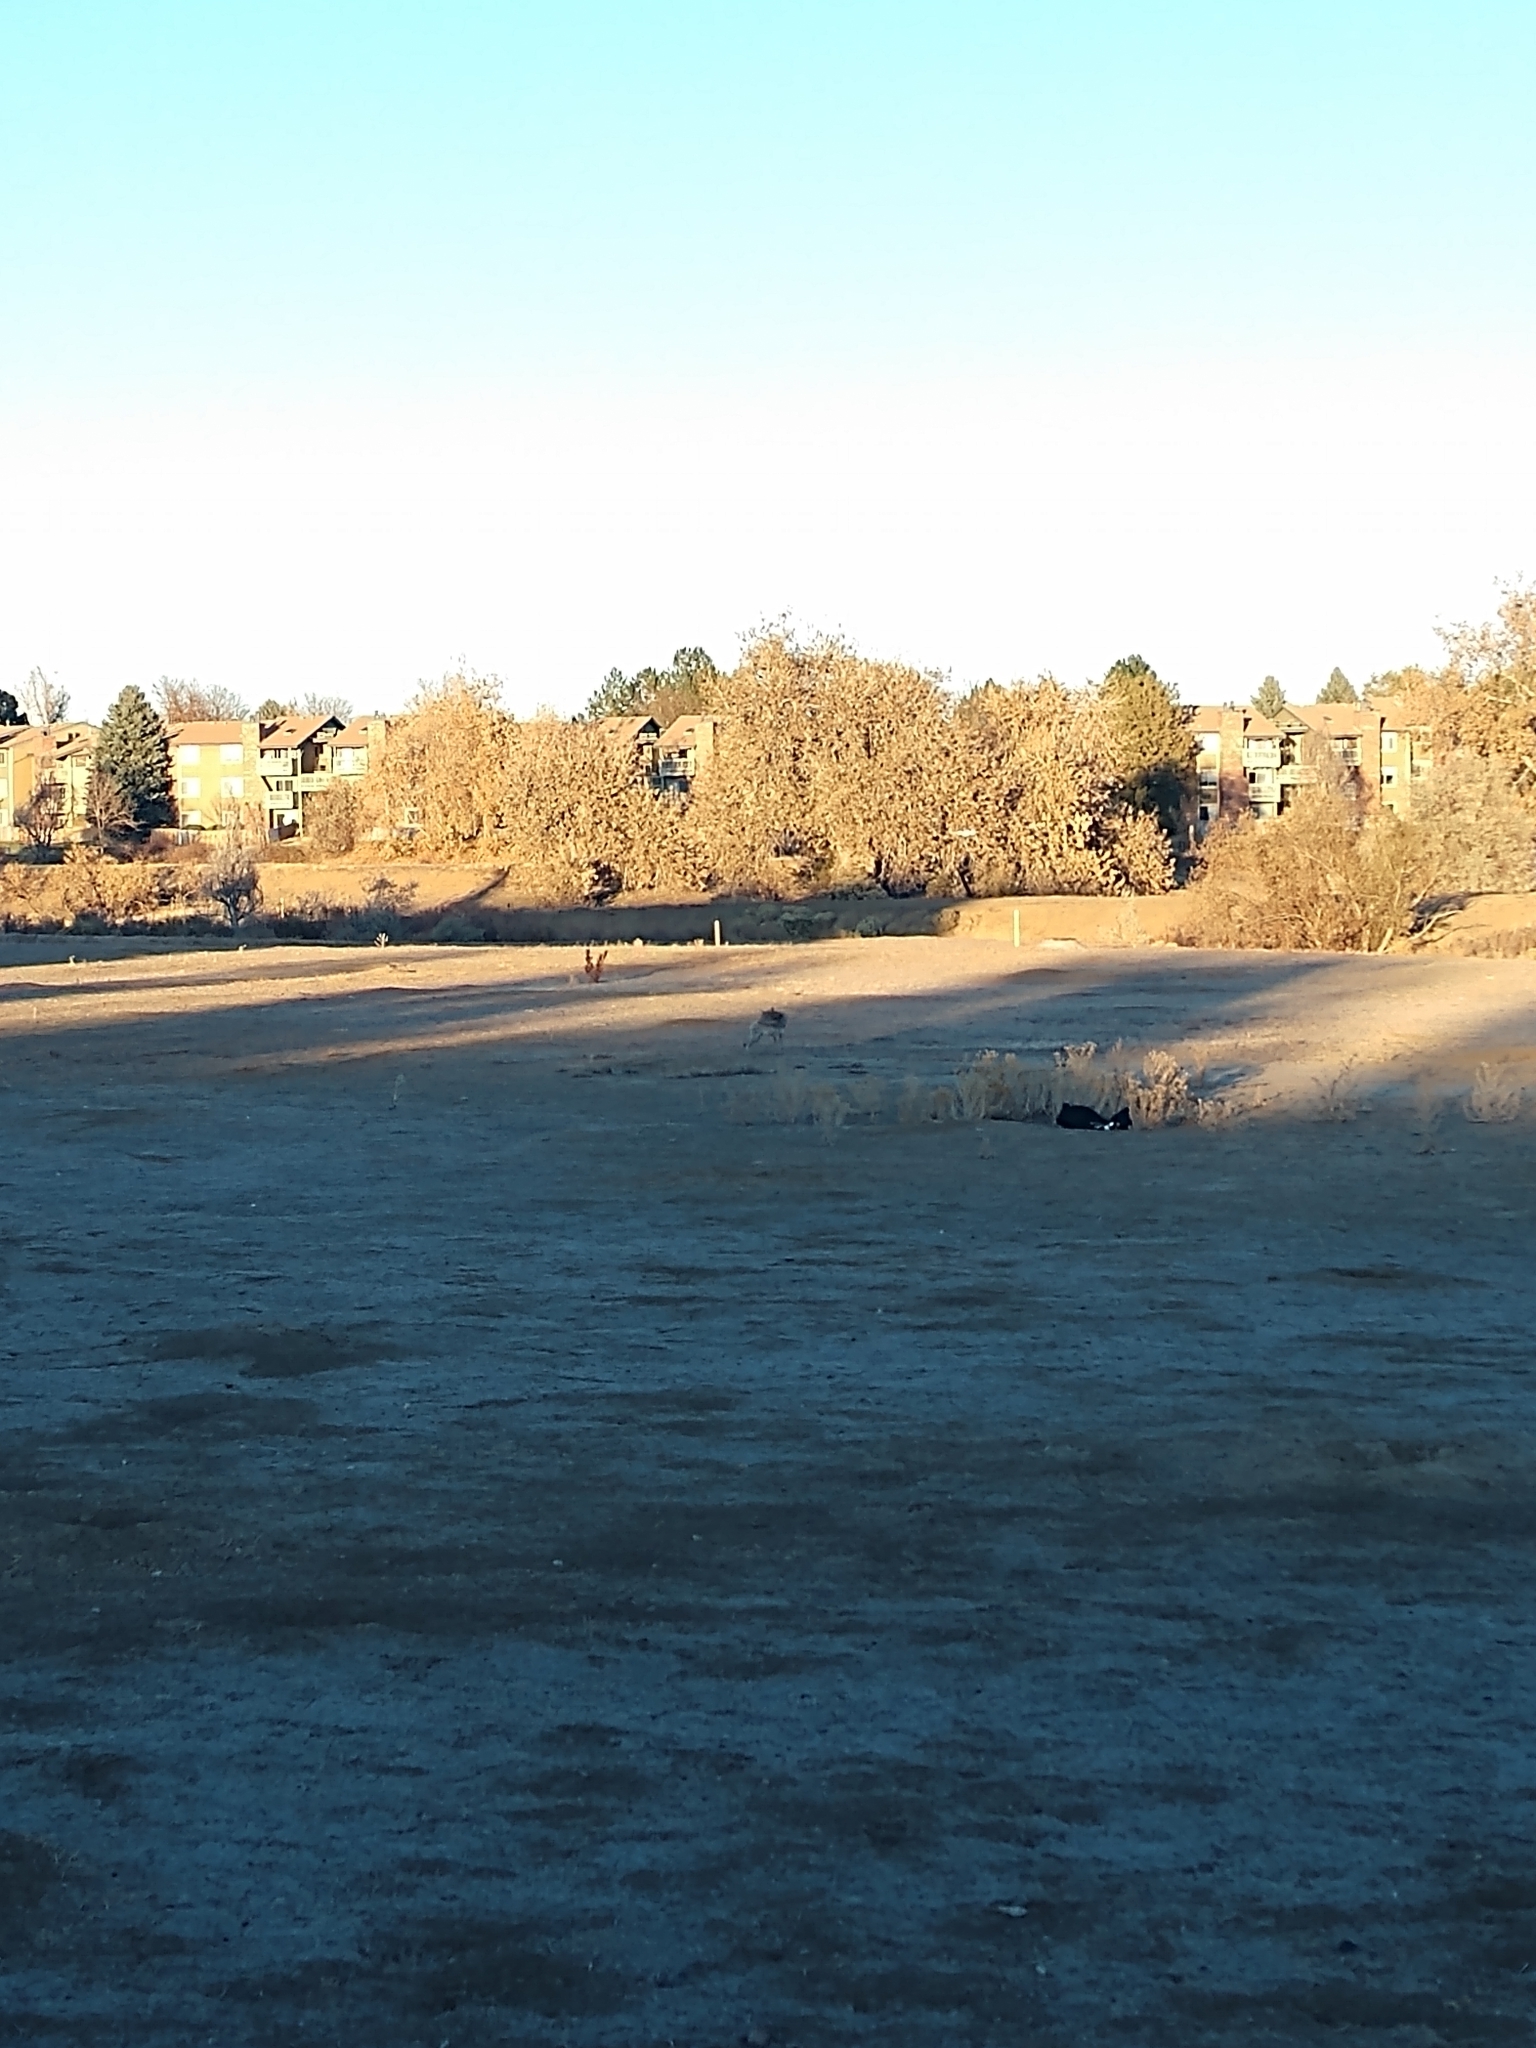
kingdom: Animalia
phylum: Chordata
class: Mammalia
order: Carnivora
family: Canidae
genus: Canis
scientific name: Canis latrans
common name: Coyote
